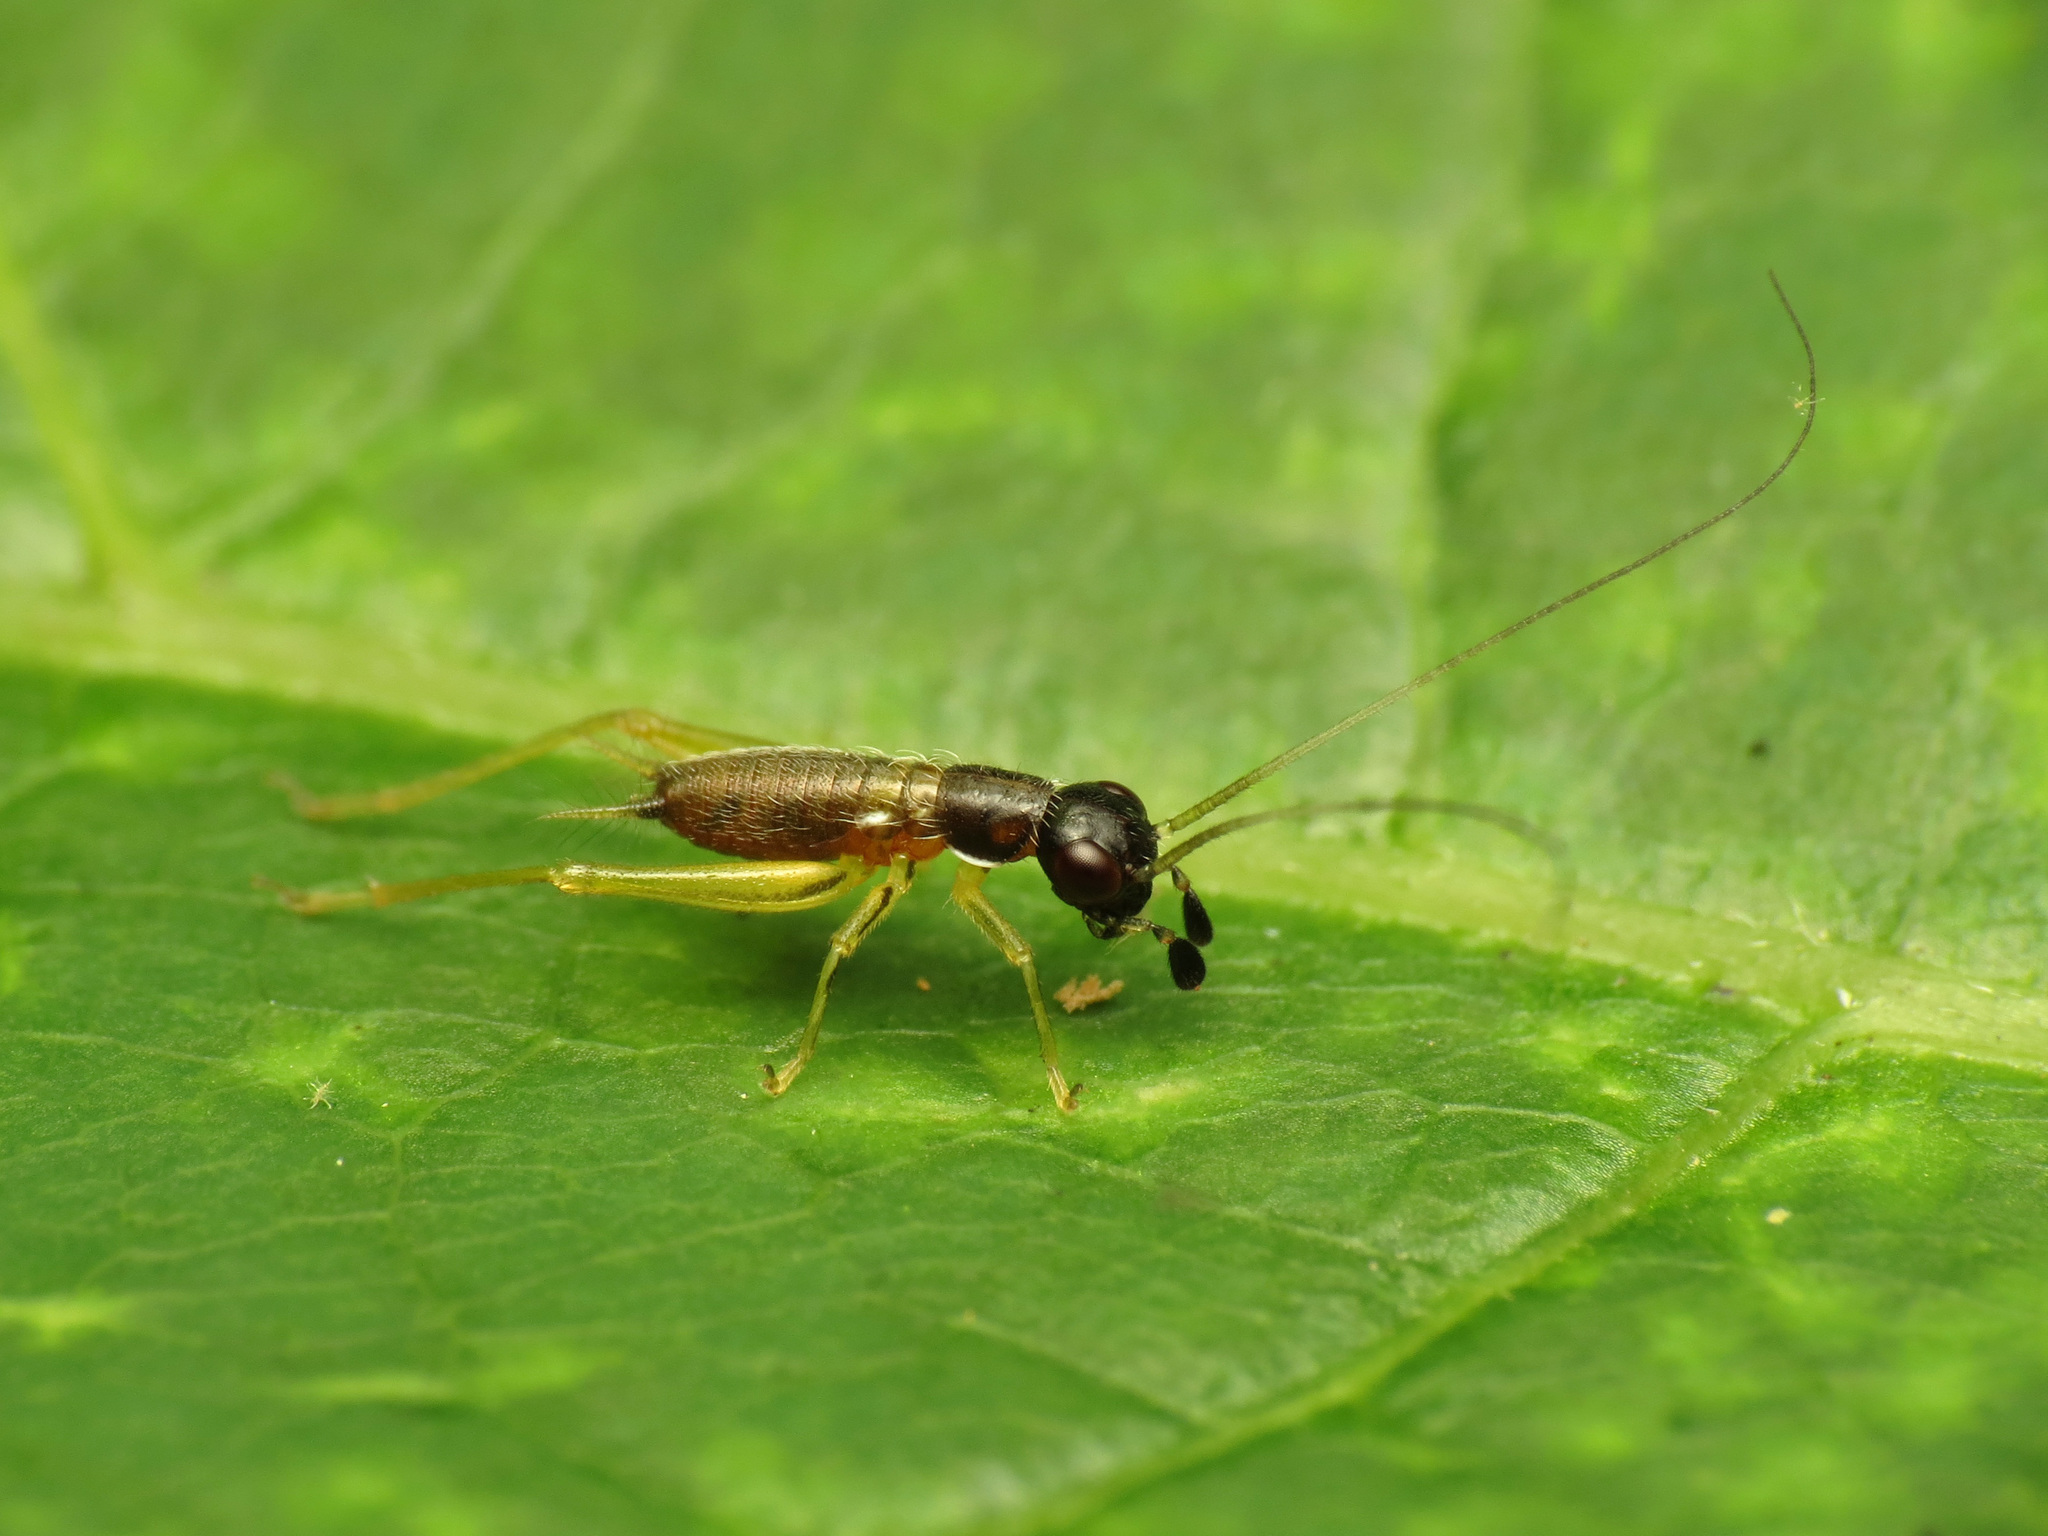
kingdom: Animalia
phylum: Arthropoda
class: Insecta
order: Orthoptera
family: Trigonidiidae
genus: Phyllopalpus
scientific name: Phyllopalpus pulchellus
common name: Handsome trig
